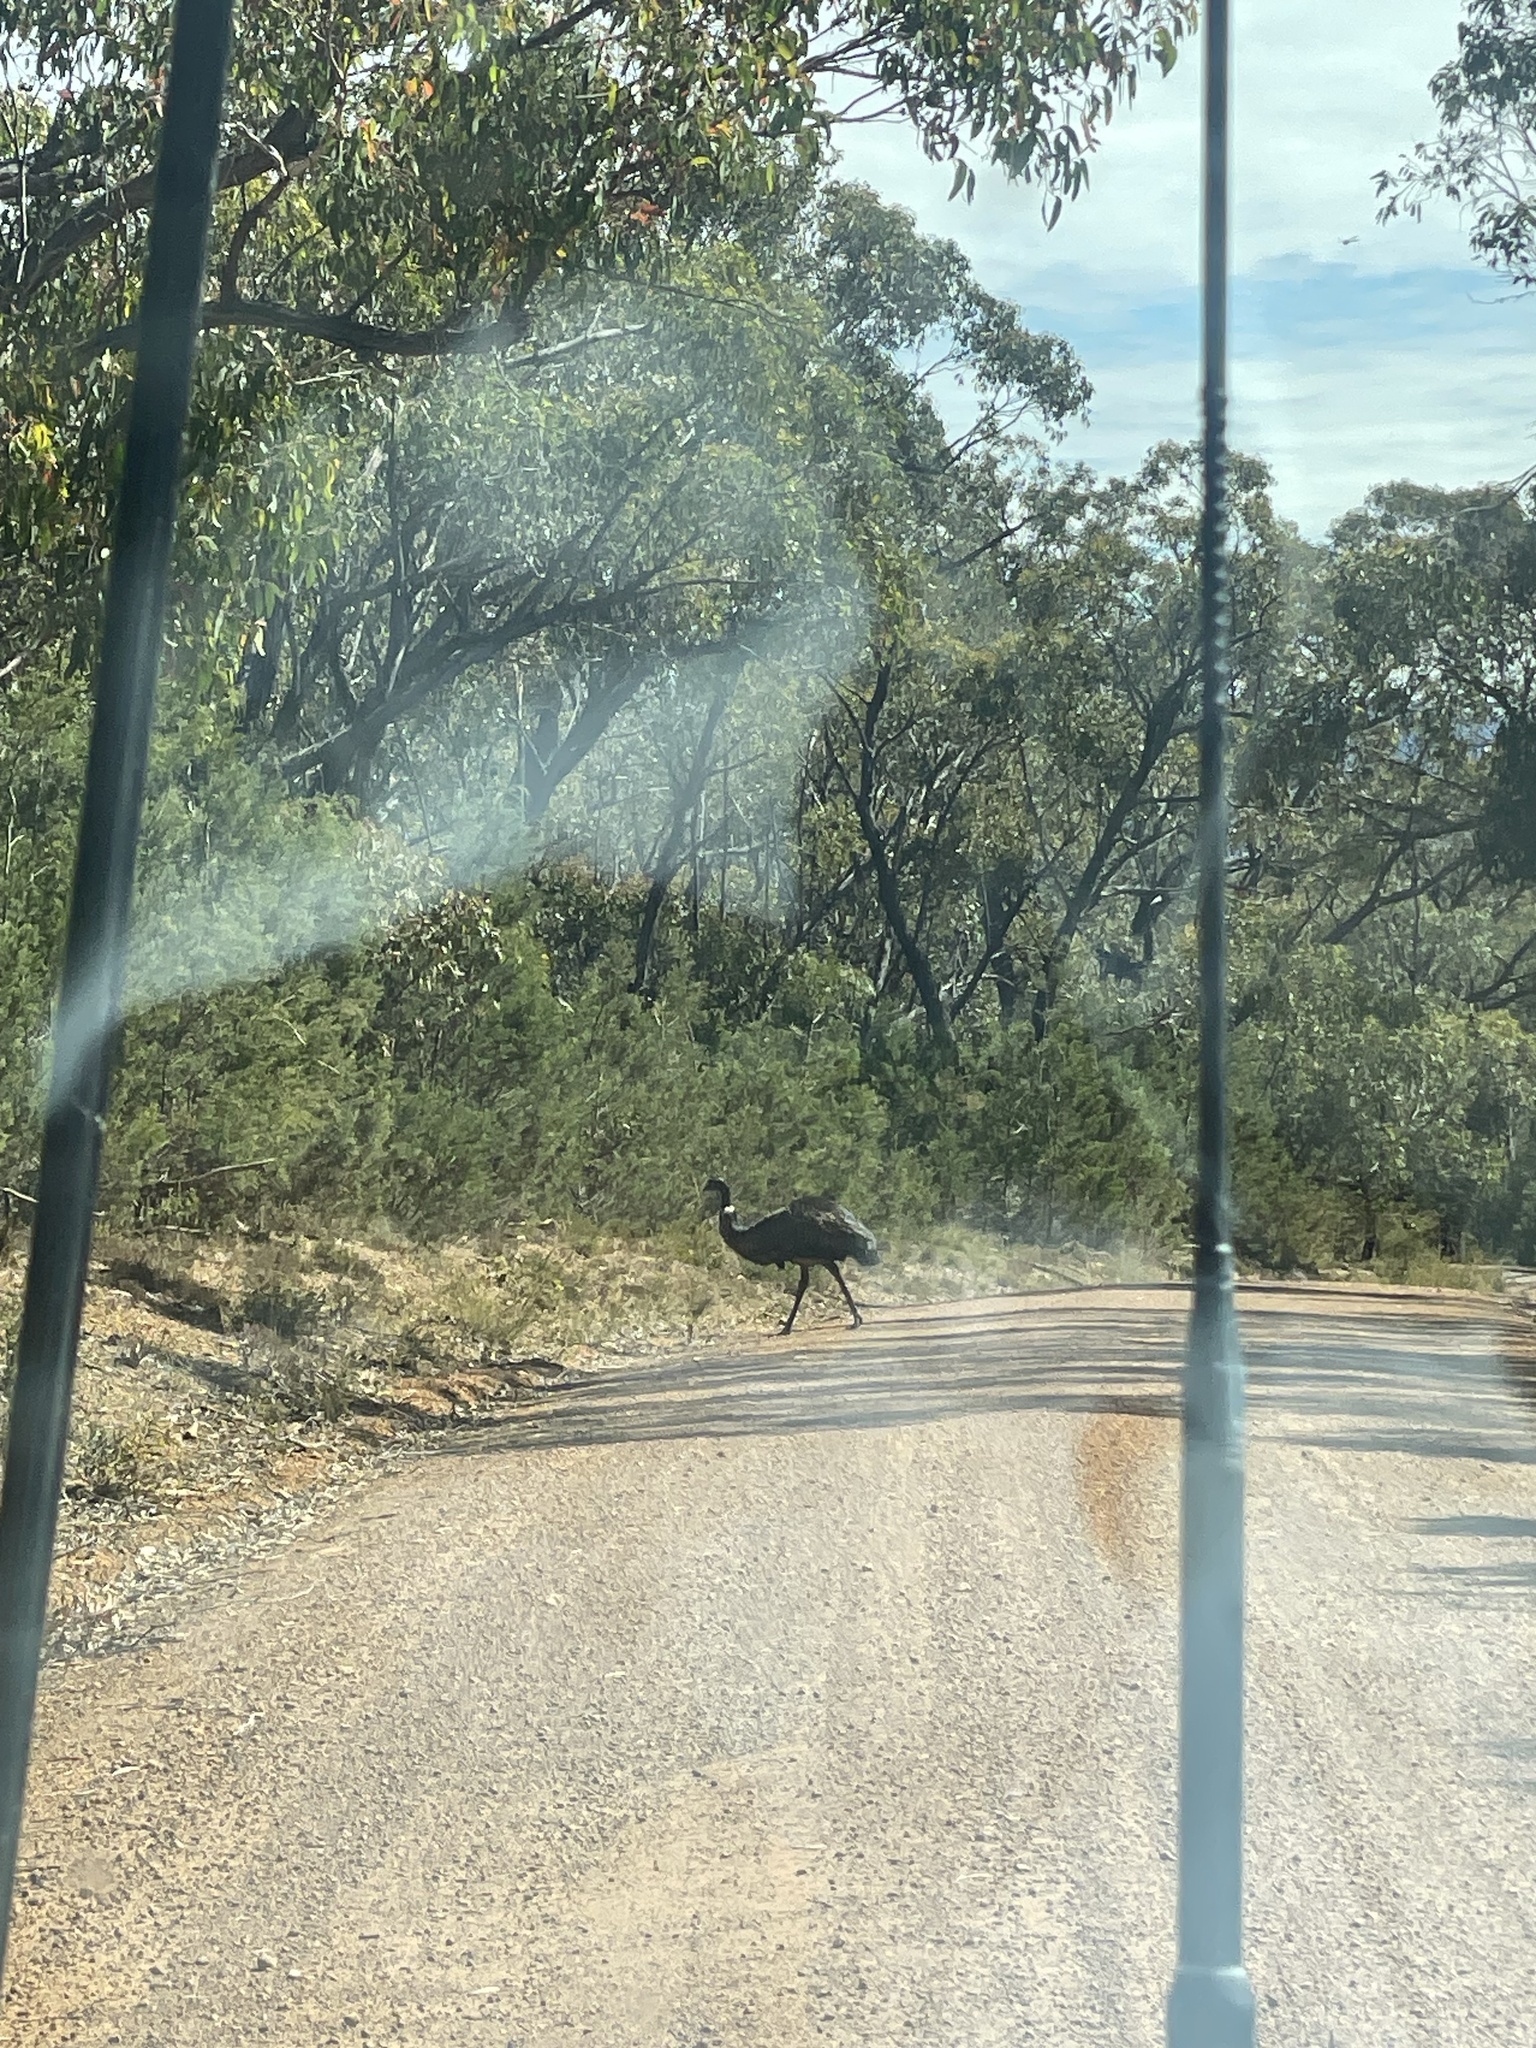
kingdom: Animalia
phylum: Chordata
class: Aves
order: Casuariiformes
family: Dromaiidae
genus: Dromaius
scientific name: Dromaius novaehollandiae
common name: Emu
